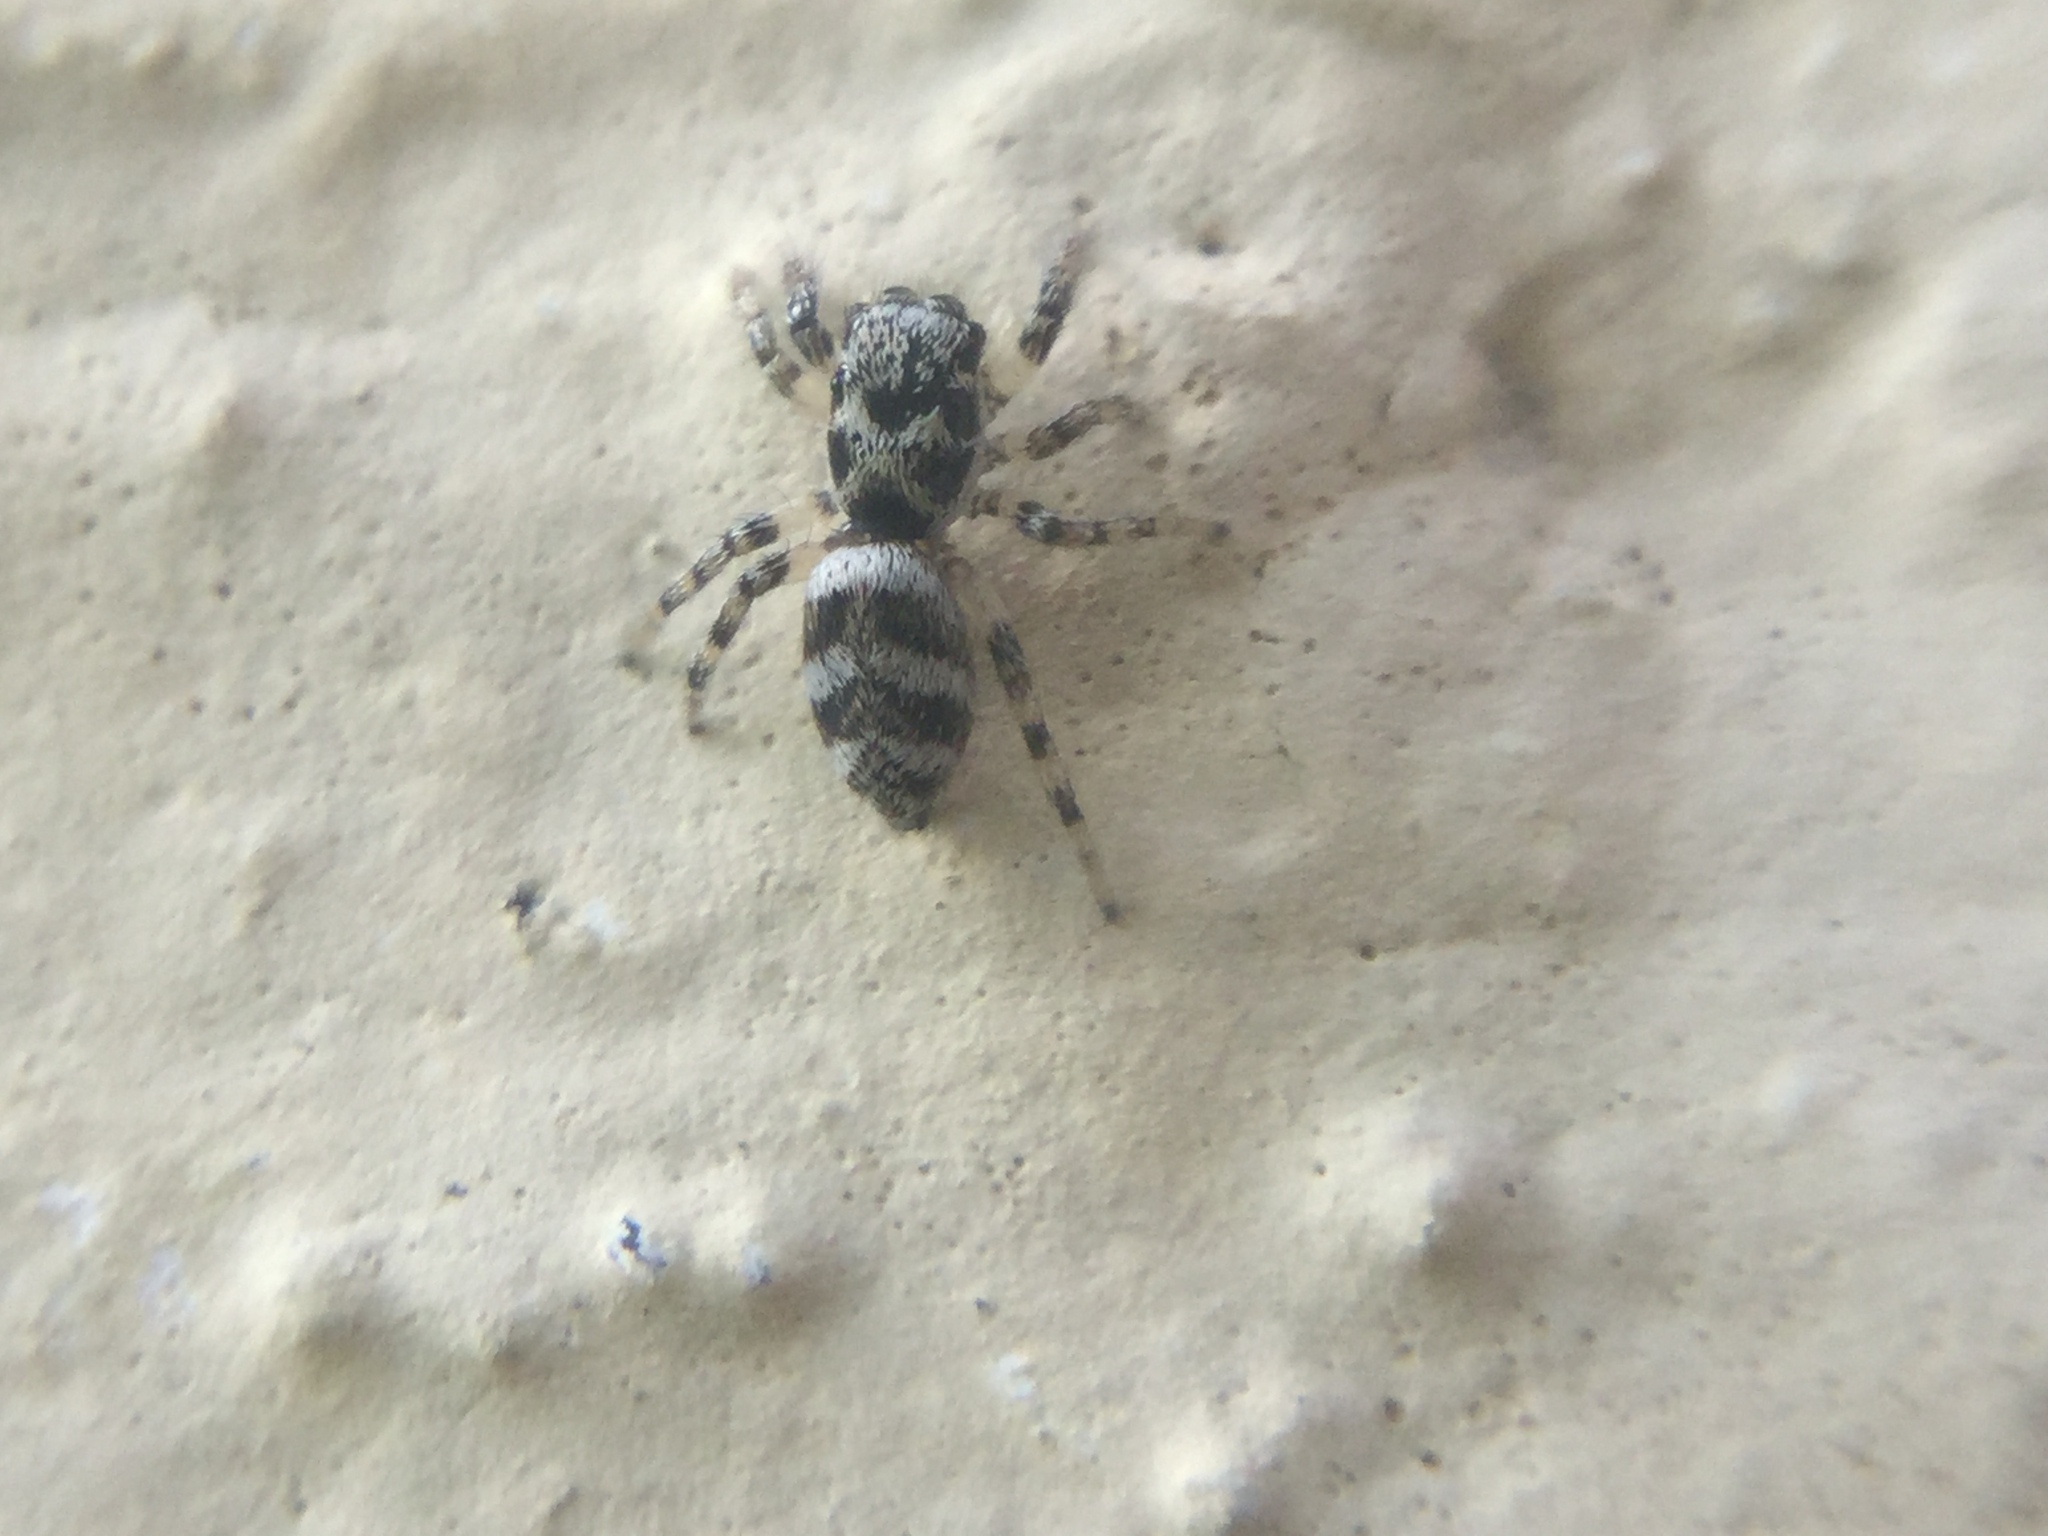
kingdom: Animalia
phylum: Arthropoda
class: Arachnida
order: Araneae
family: Salticidae
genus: Salticus
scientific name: Salticus scenicus
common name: Zebra jumper
